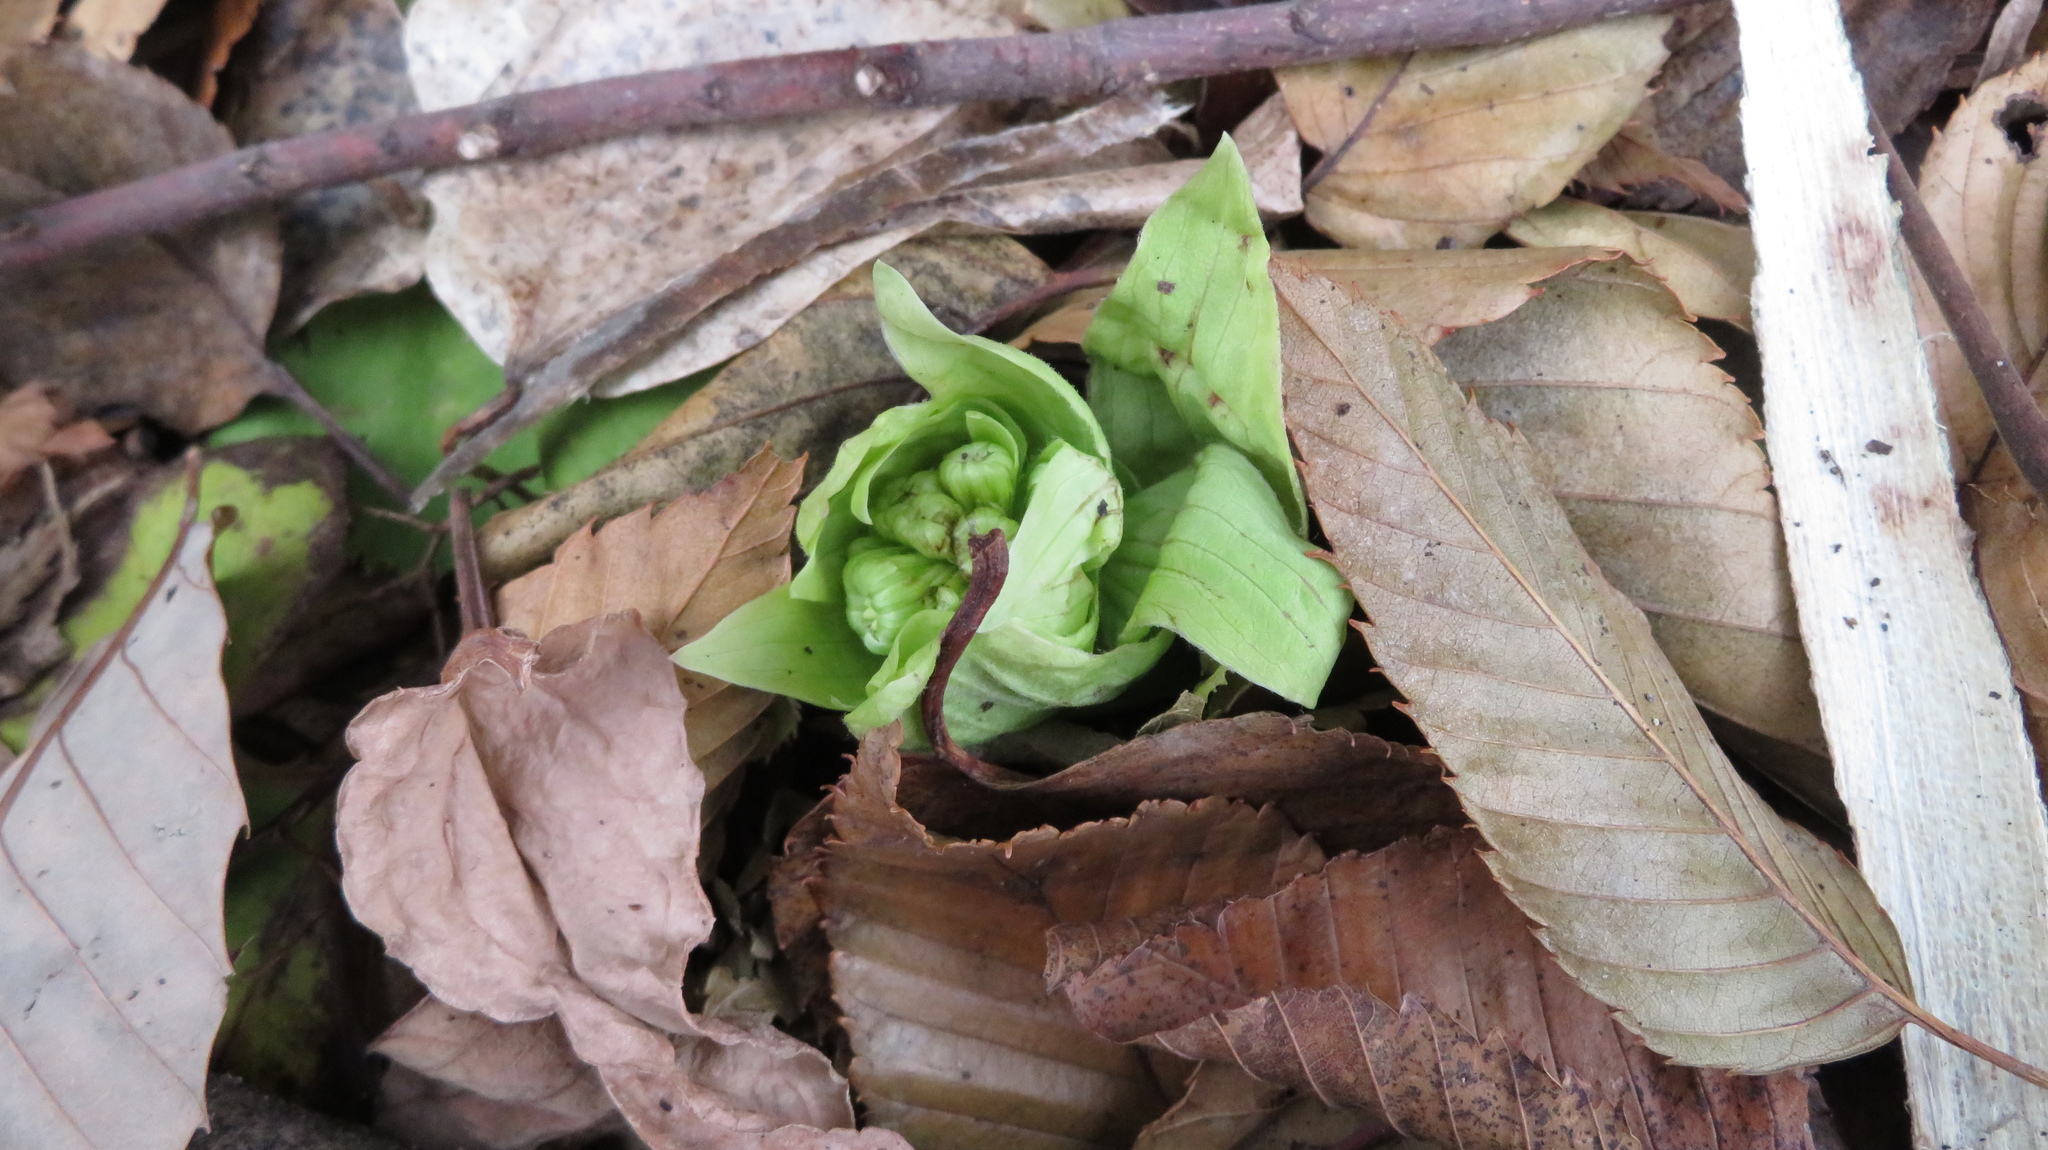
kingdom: Plantae
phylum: Tracheophyta
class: Magnoliopsida
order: Asterales
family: Asteraceae
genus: Petasites
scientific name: Petasites japonicus
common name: Giant butterbur
